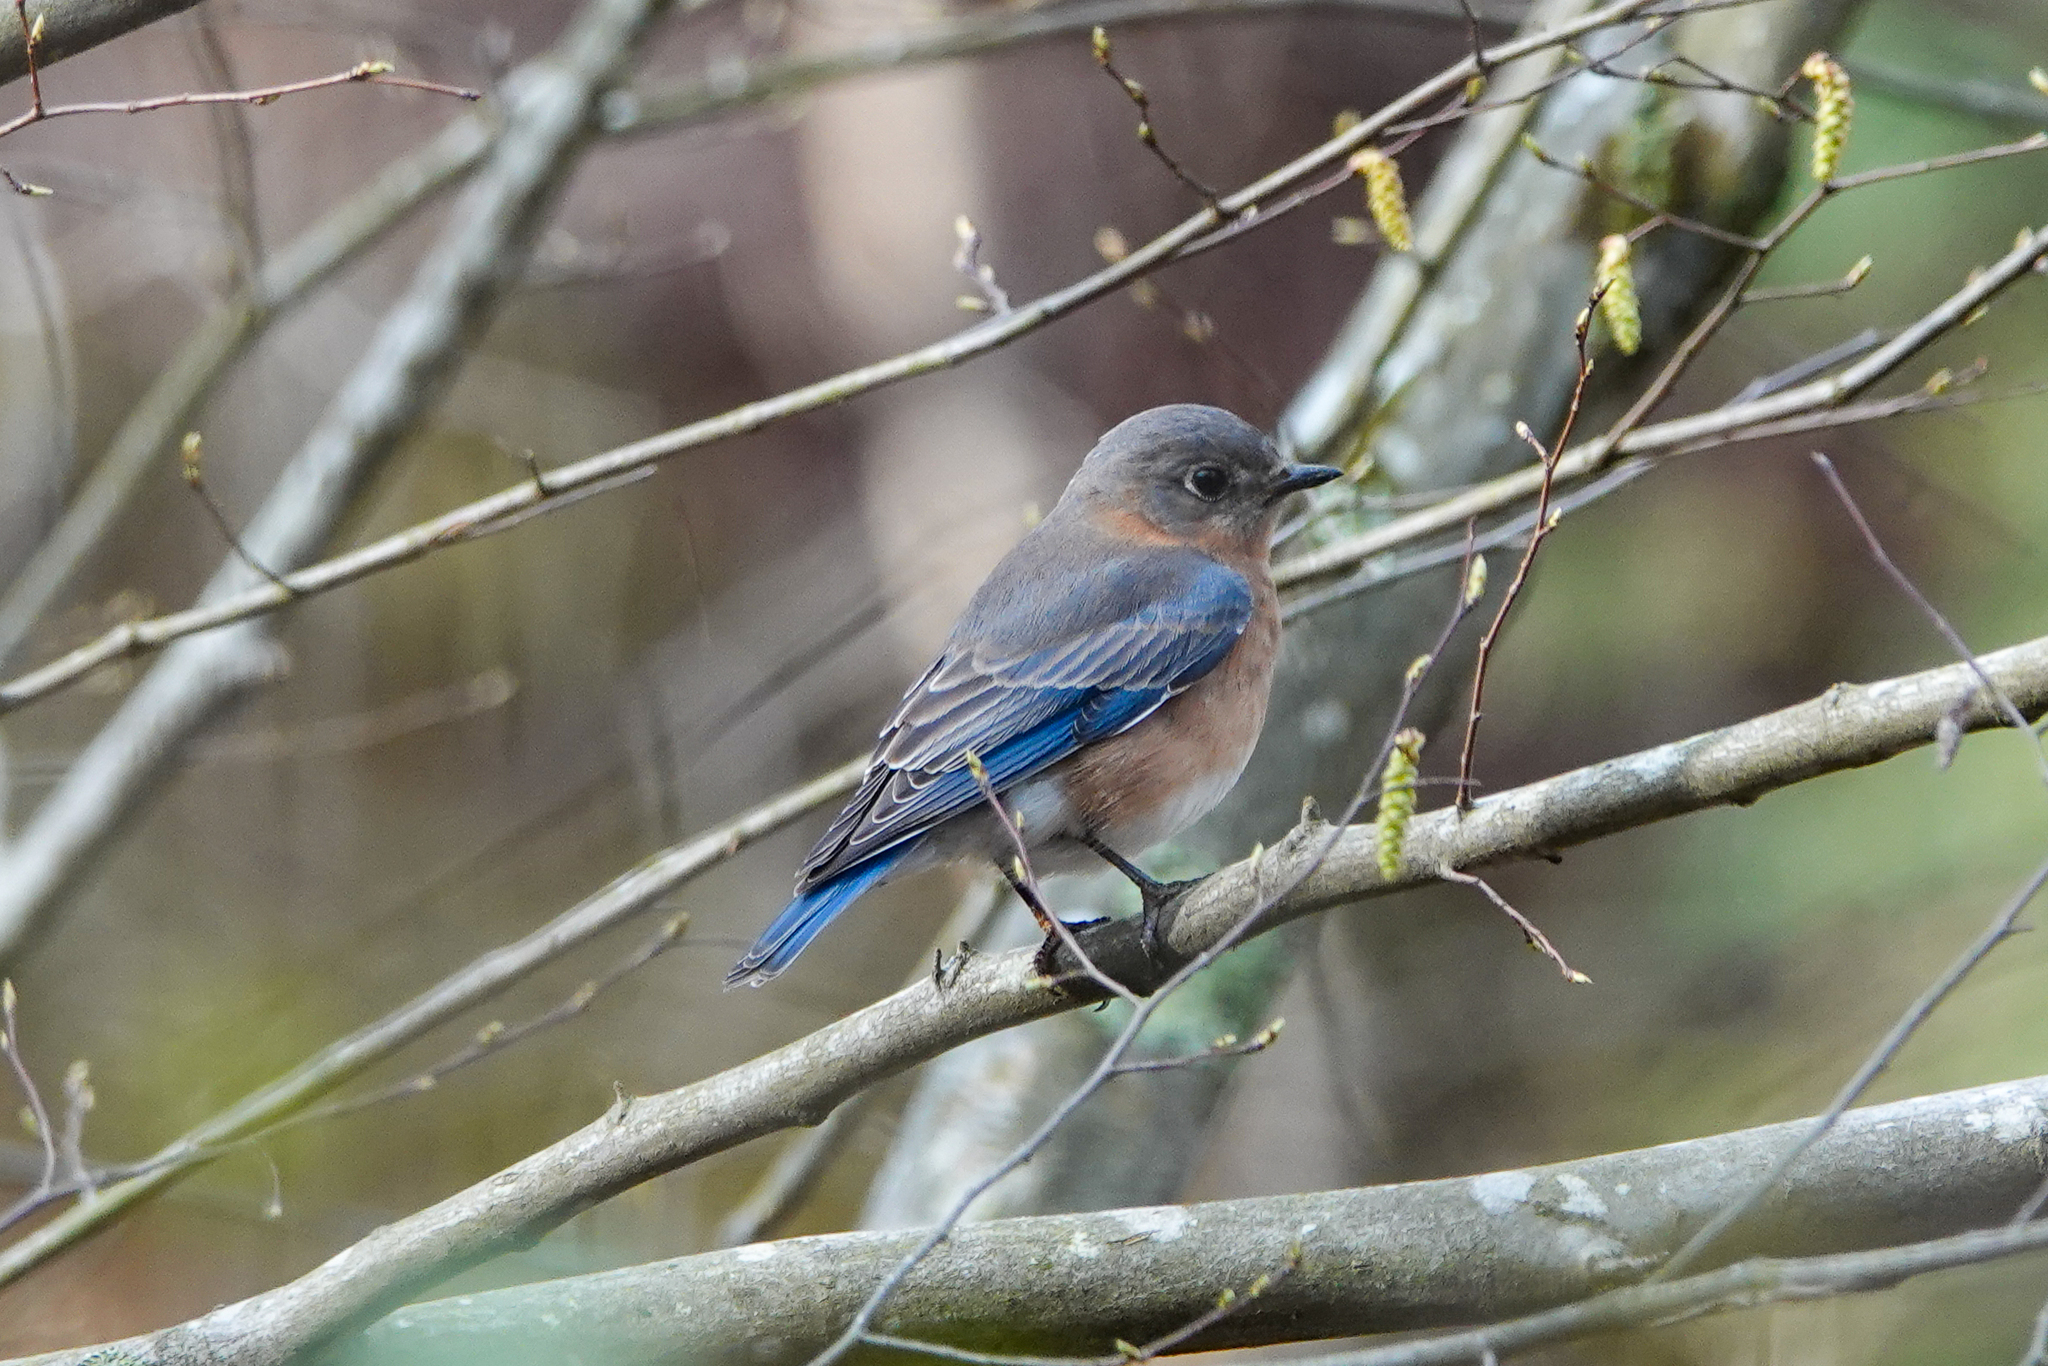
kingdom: Animalia
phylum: Chordata
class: Aves
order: Passeriformes
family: Turdidae
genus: Sialia
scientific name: Sialia sialis
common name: Eastern bluebird
